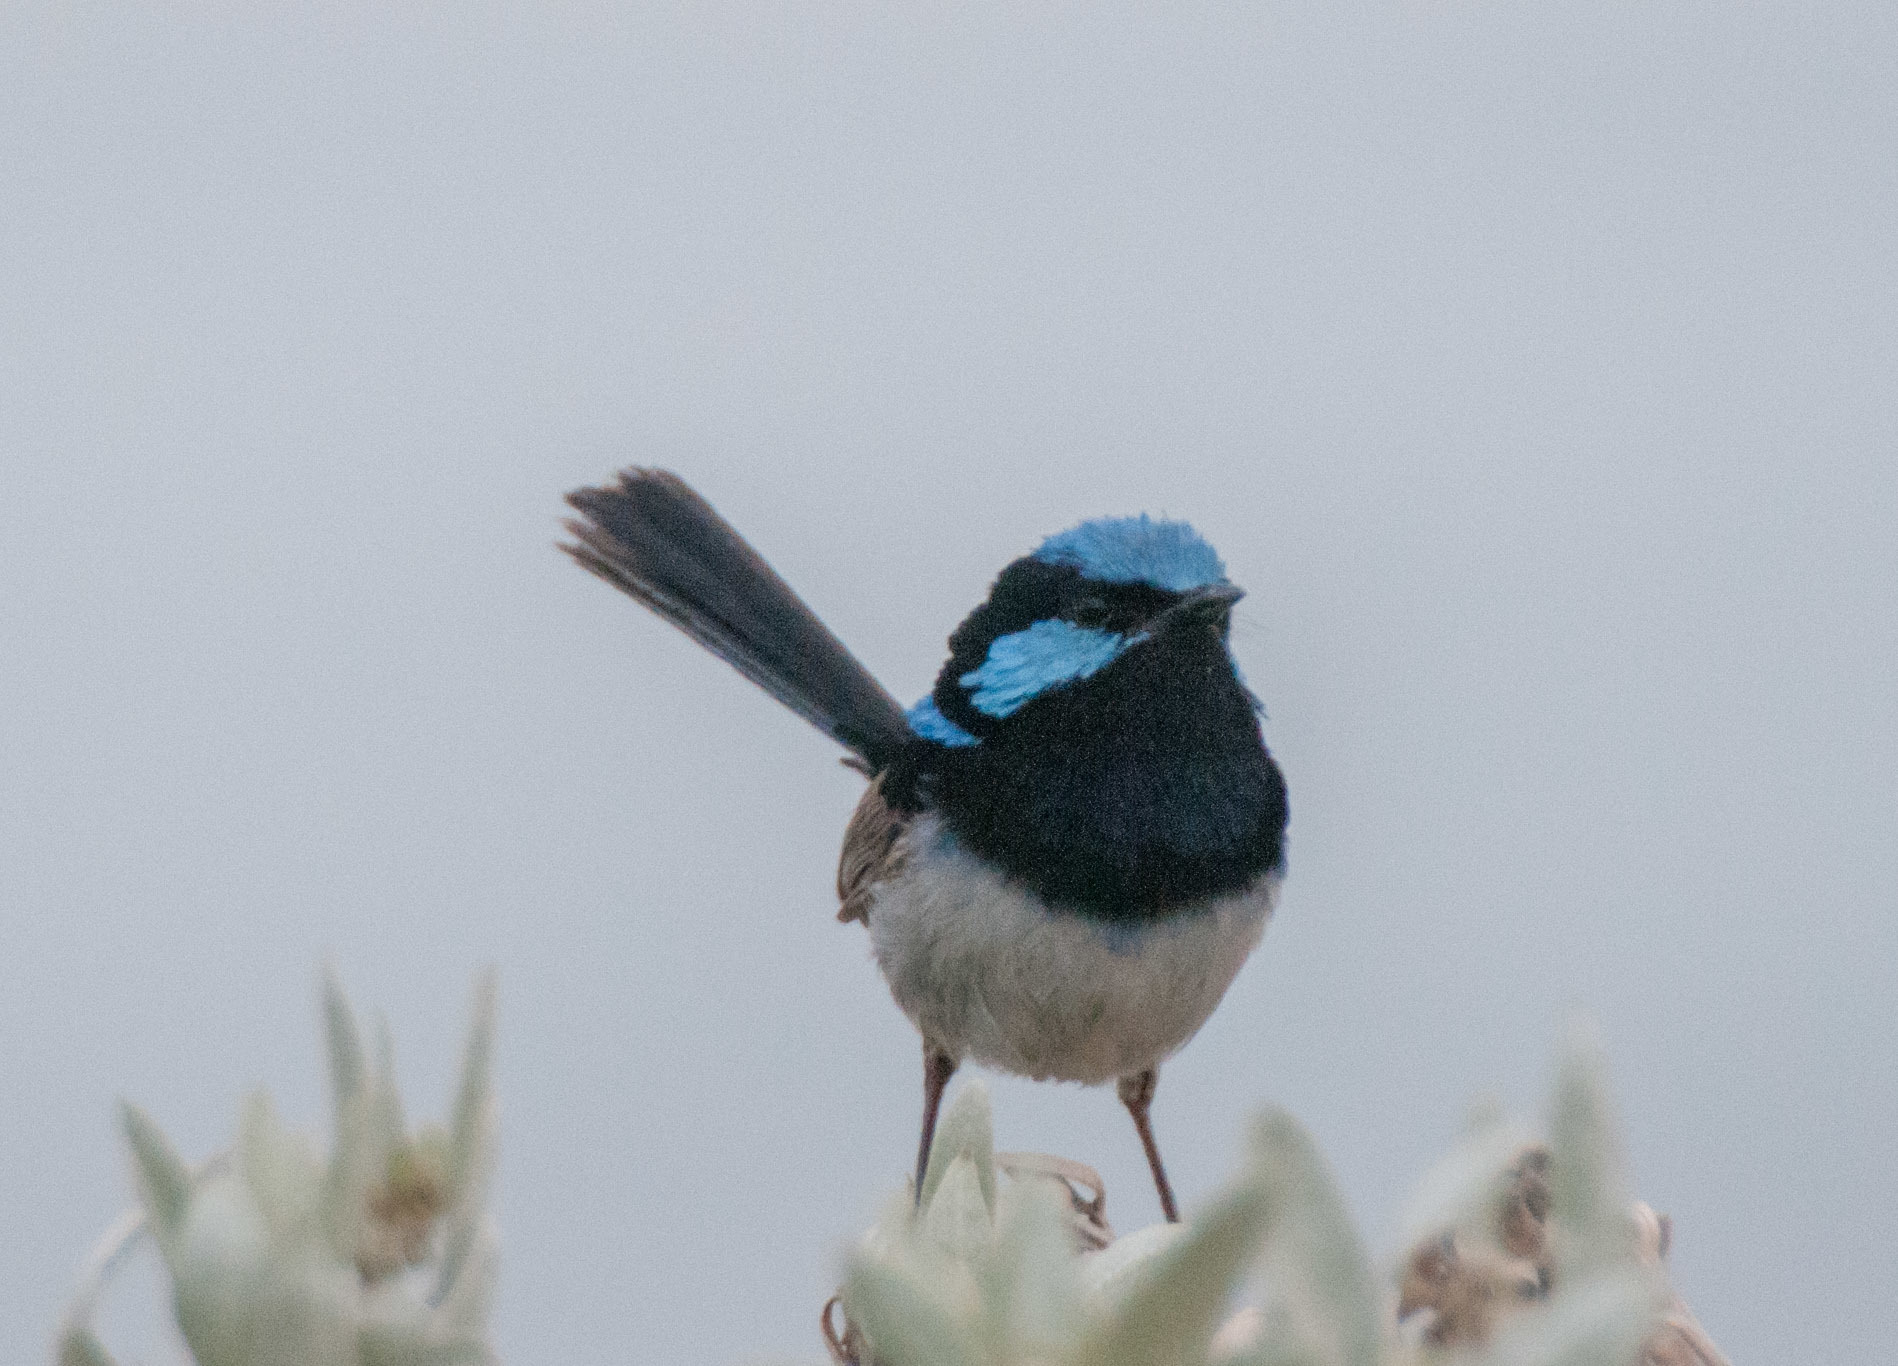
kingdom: Animalia
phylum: Chordata
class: Aves
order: Passeriformes
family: Maluridae
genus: Malurus
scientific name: Malurus cyaneus
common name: Superb fairywren
